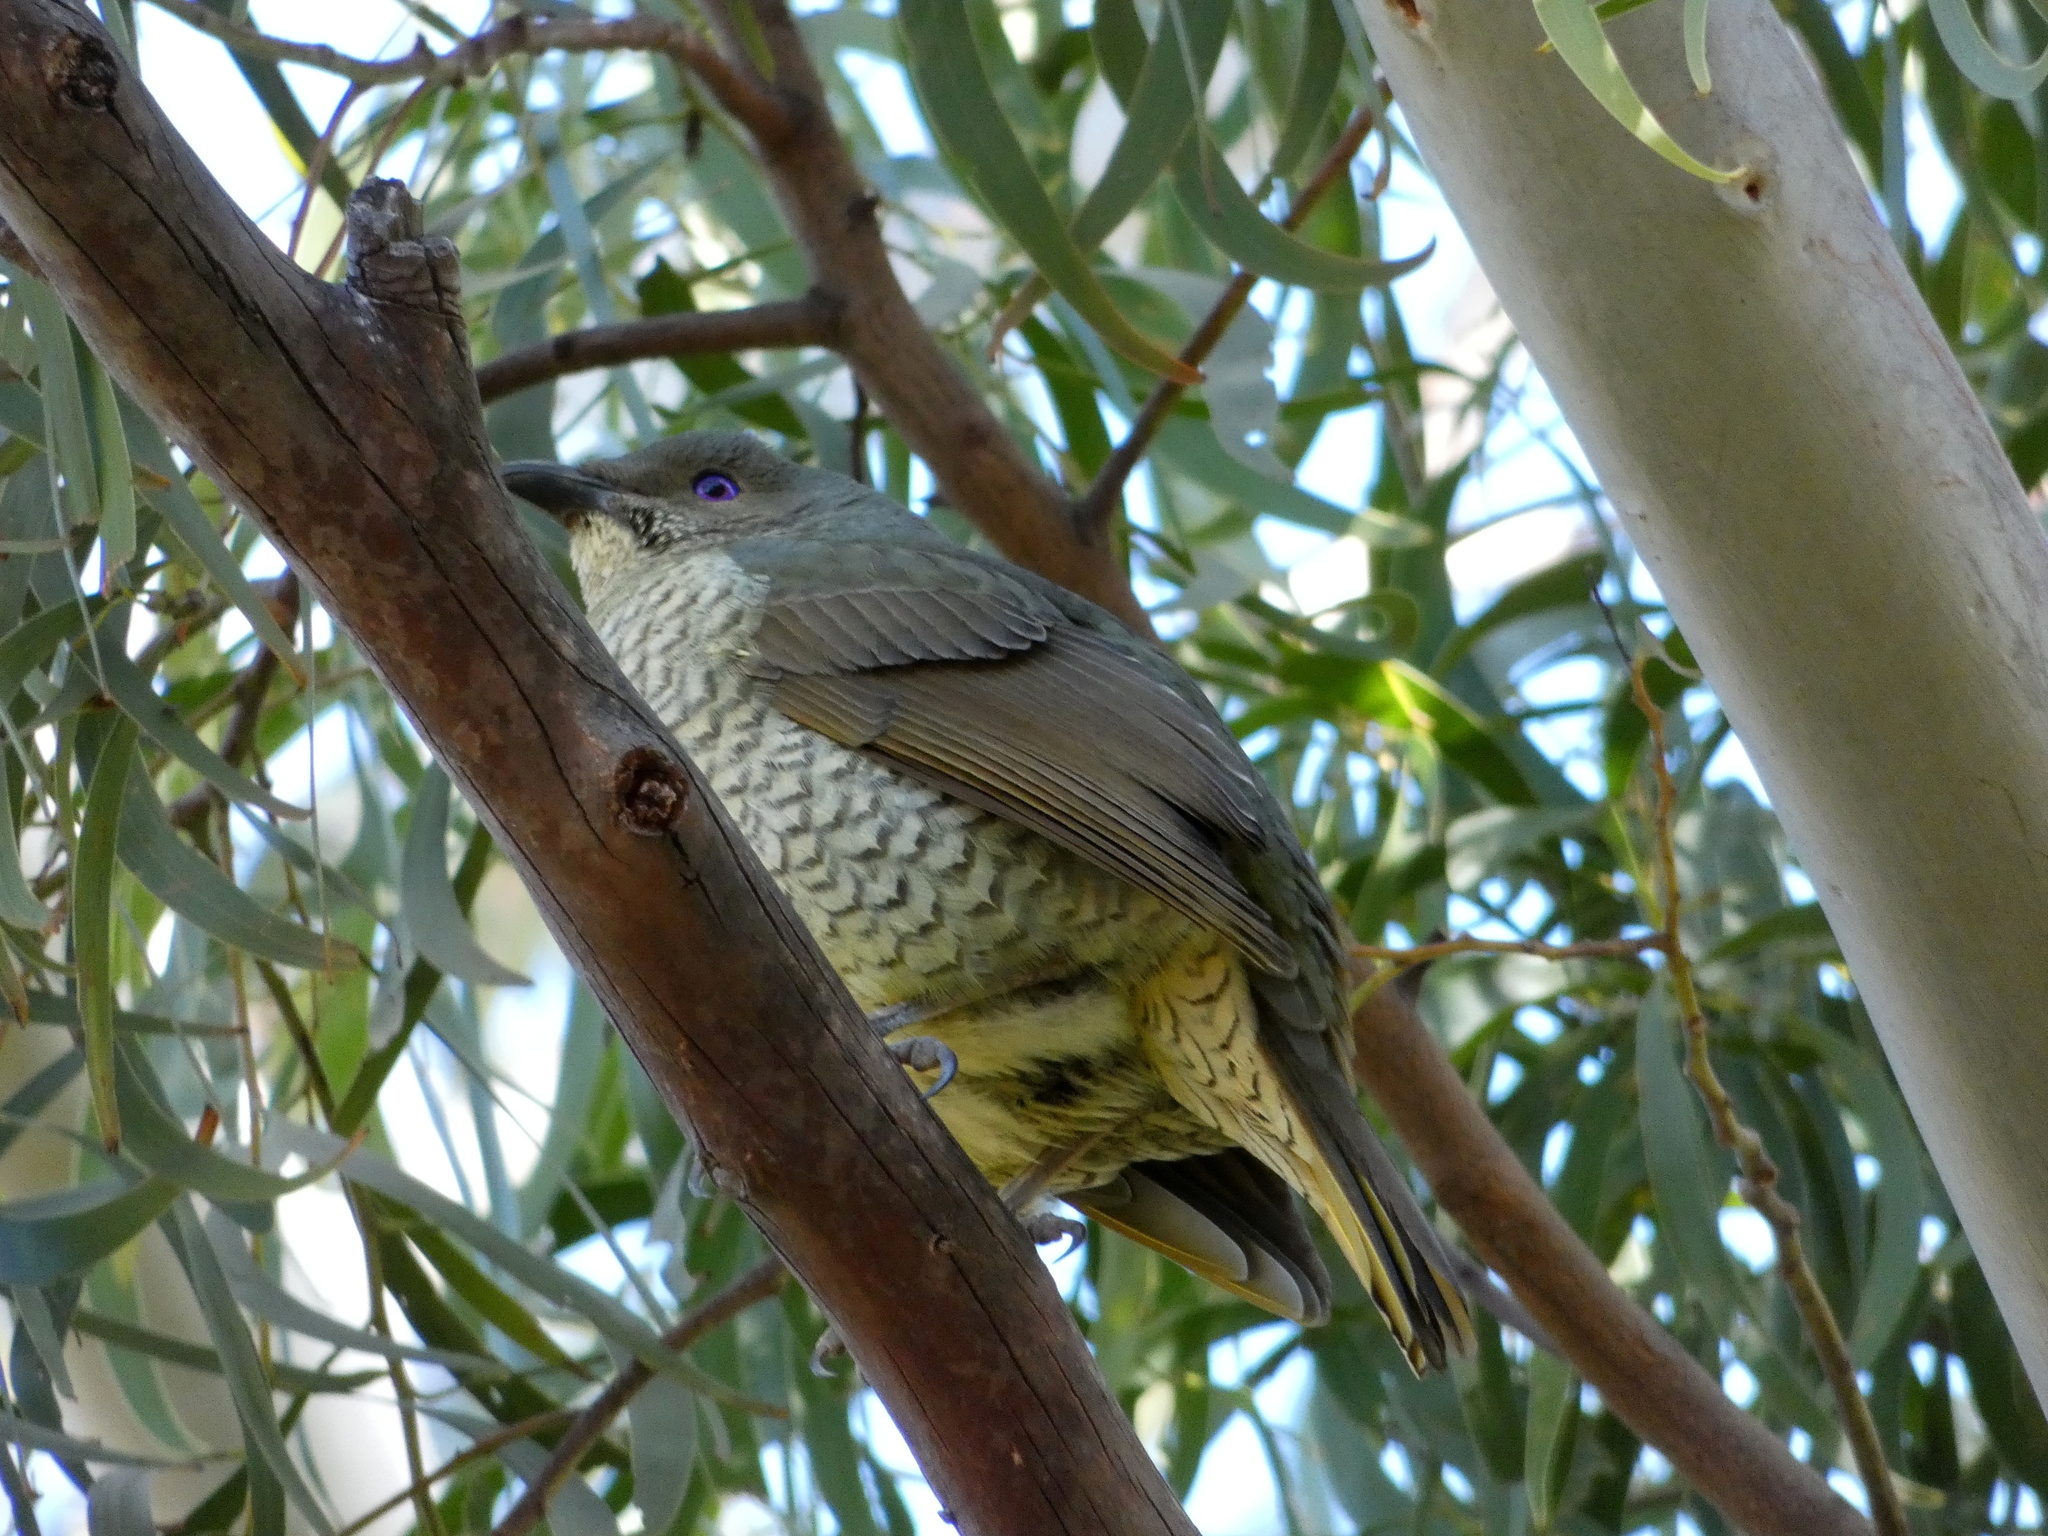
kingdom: Animalia
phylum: Chordata
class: Aves
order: Passeriformes
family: Ptilonorhynchidae
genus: Ptilonorhynchus
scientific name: Ptilonorhynchus violaceus
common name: Satin bowerbird
